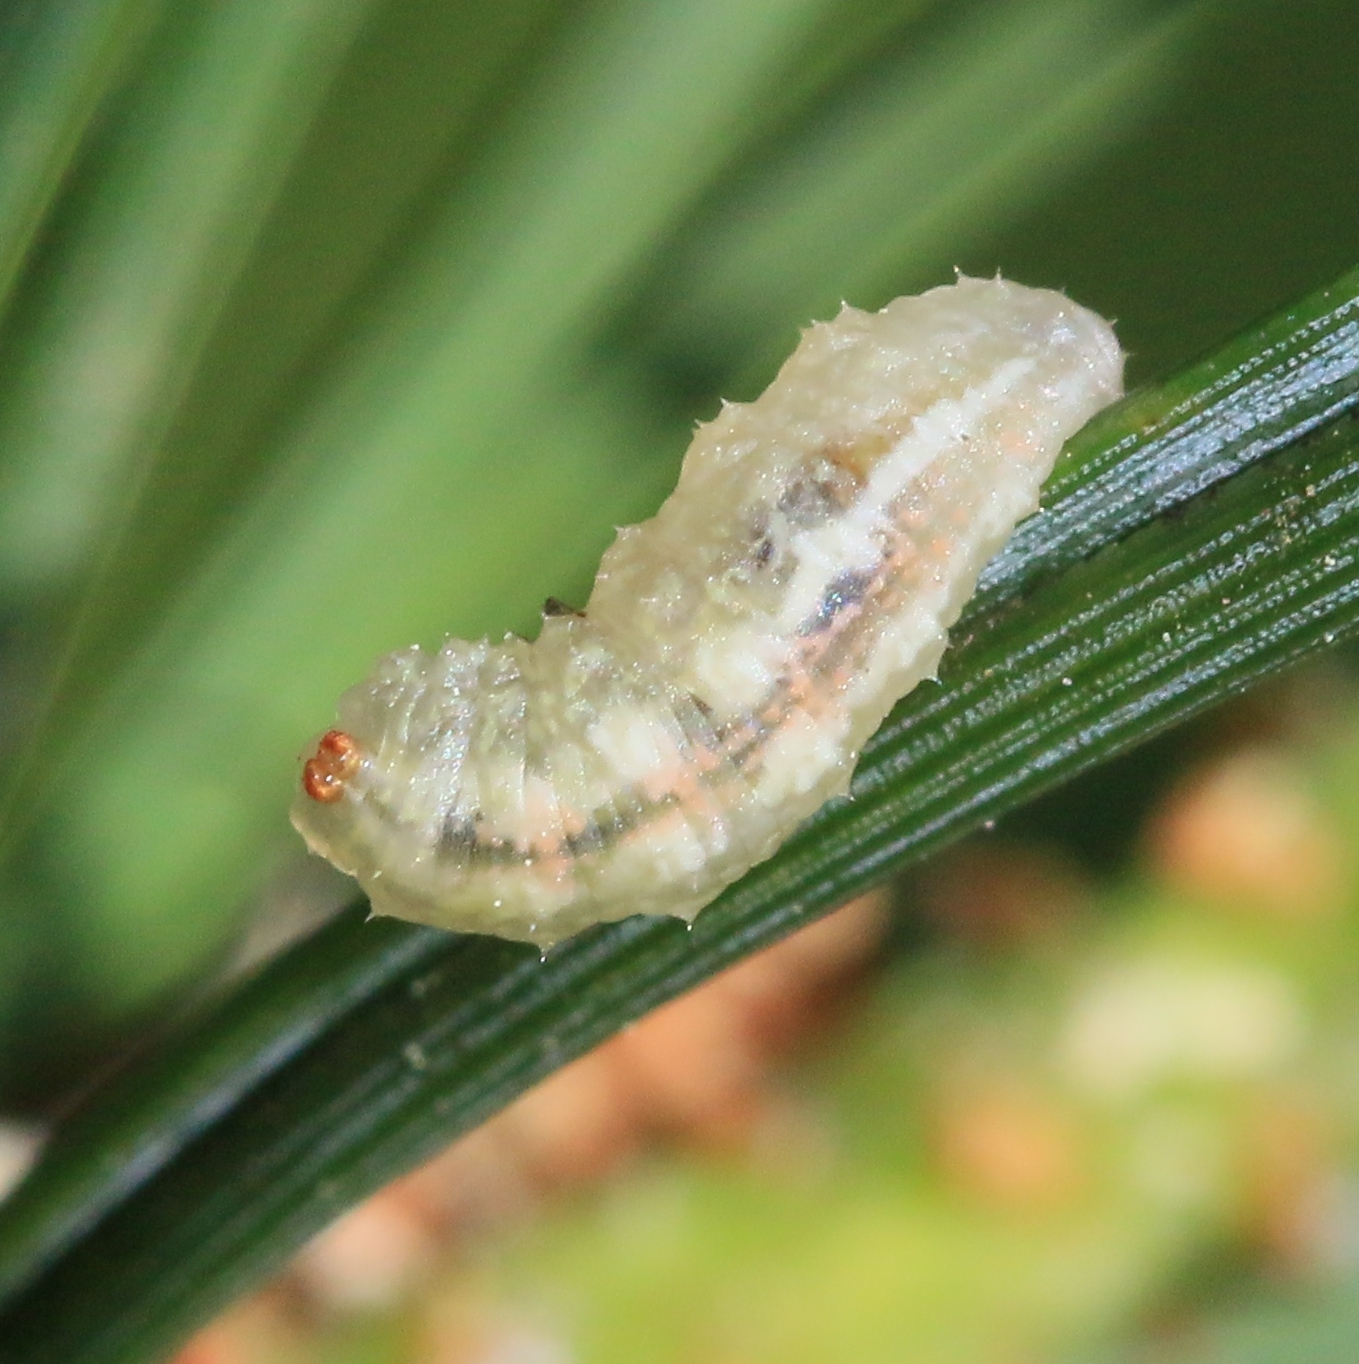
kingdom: Animalia
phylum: Arthropoda
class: Insecta
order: Diptera
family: Syrphidae
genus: Syrphus
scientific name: Syrphus
